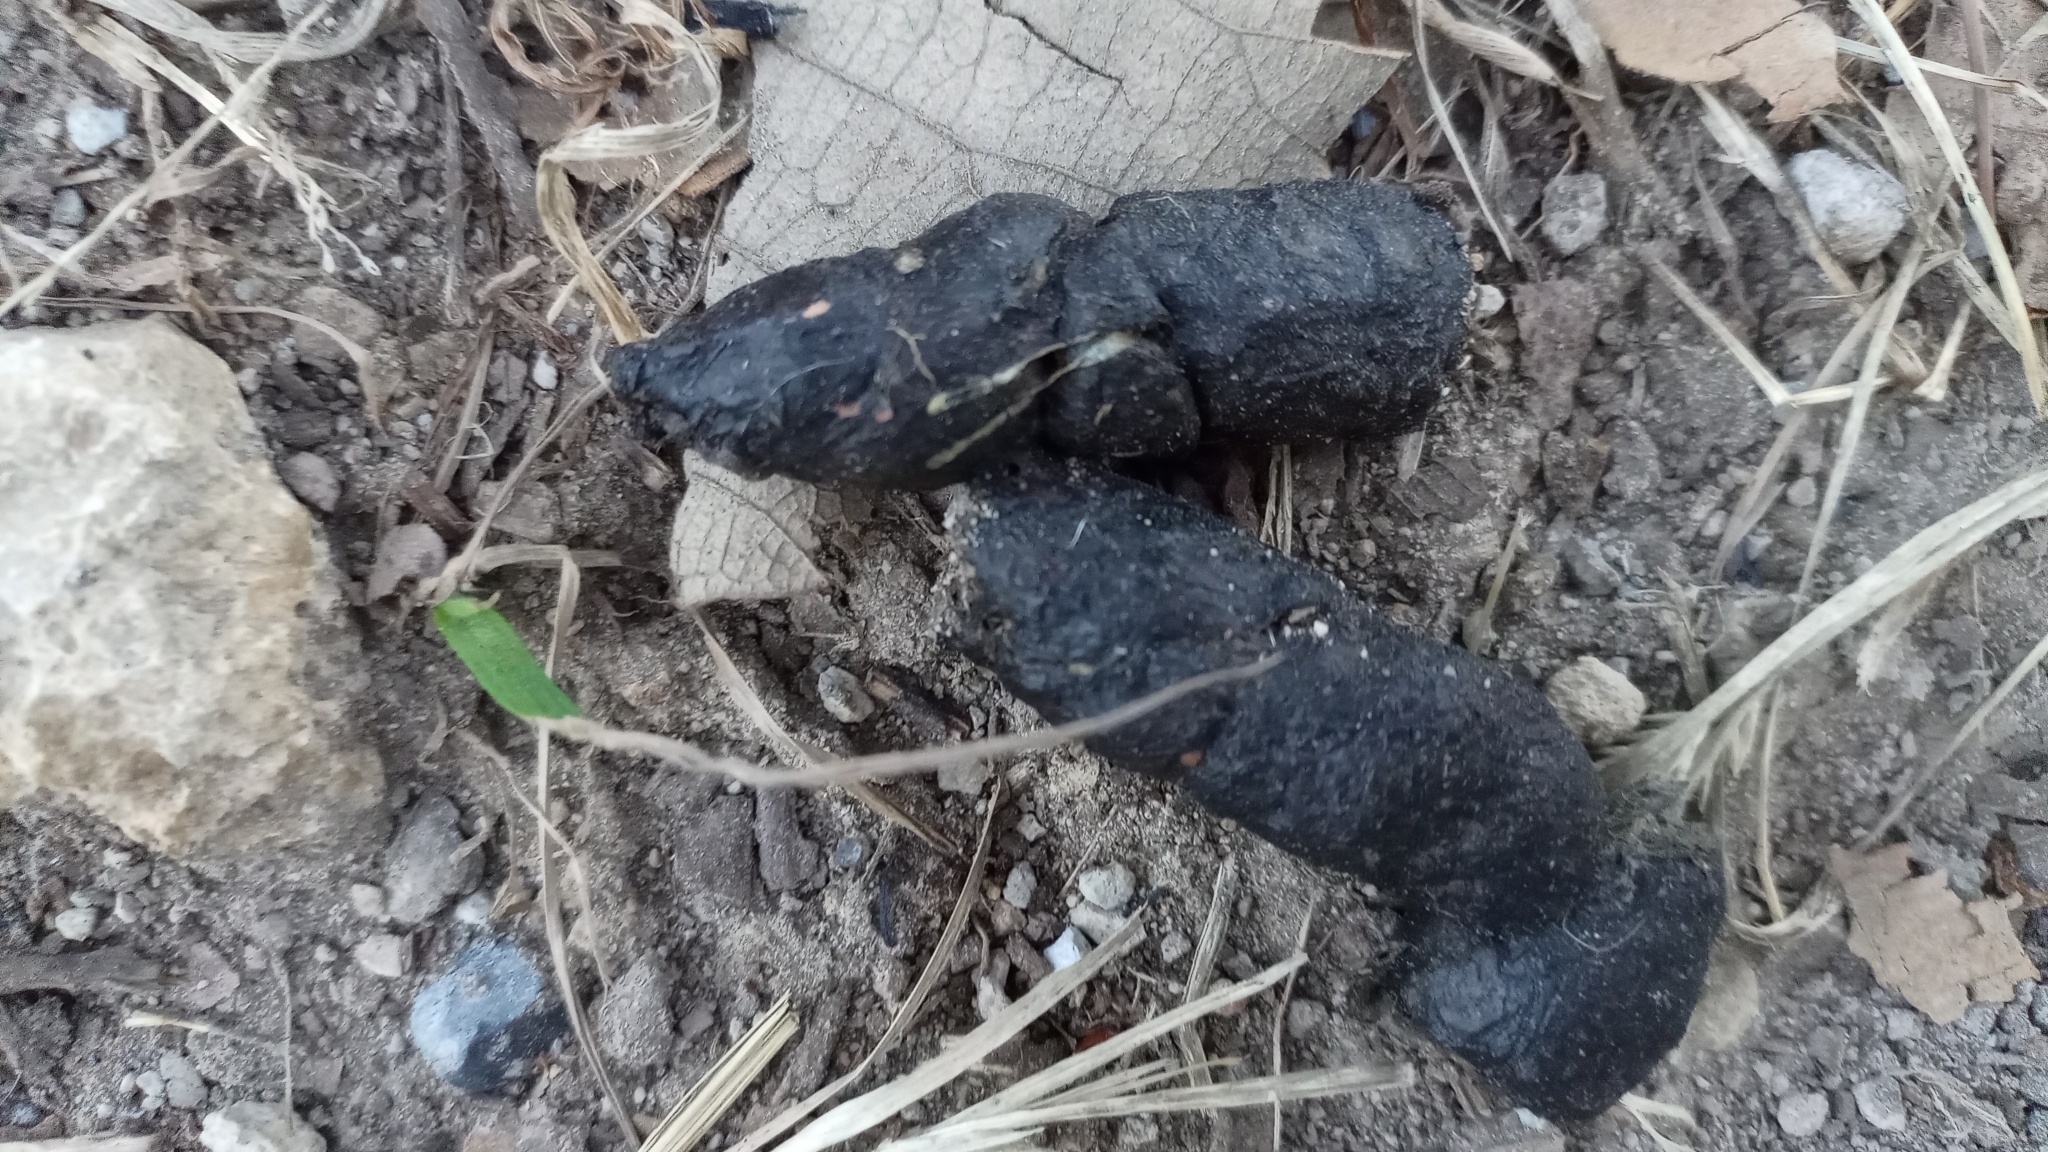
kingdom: Animalia
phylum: Chordata
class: Mammalia
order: Carnivora
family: Canidae
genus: Canis
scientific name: Canis latrans
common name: Coyote
